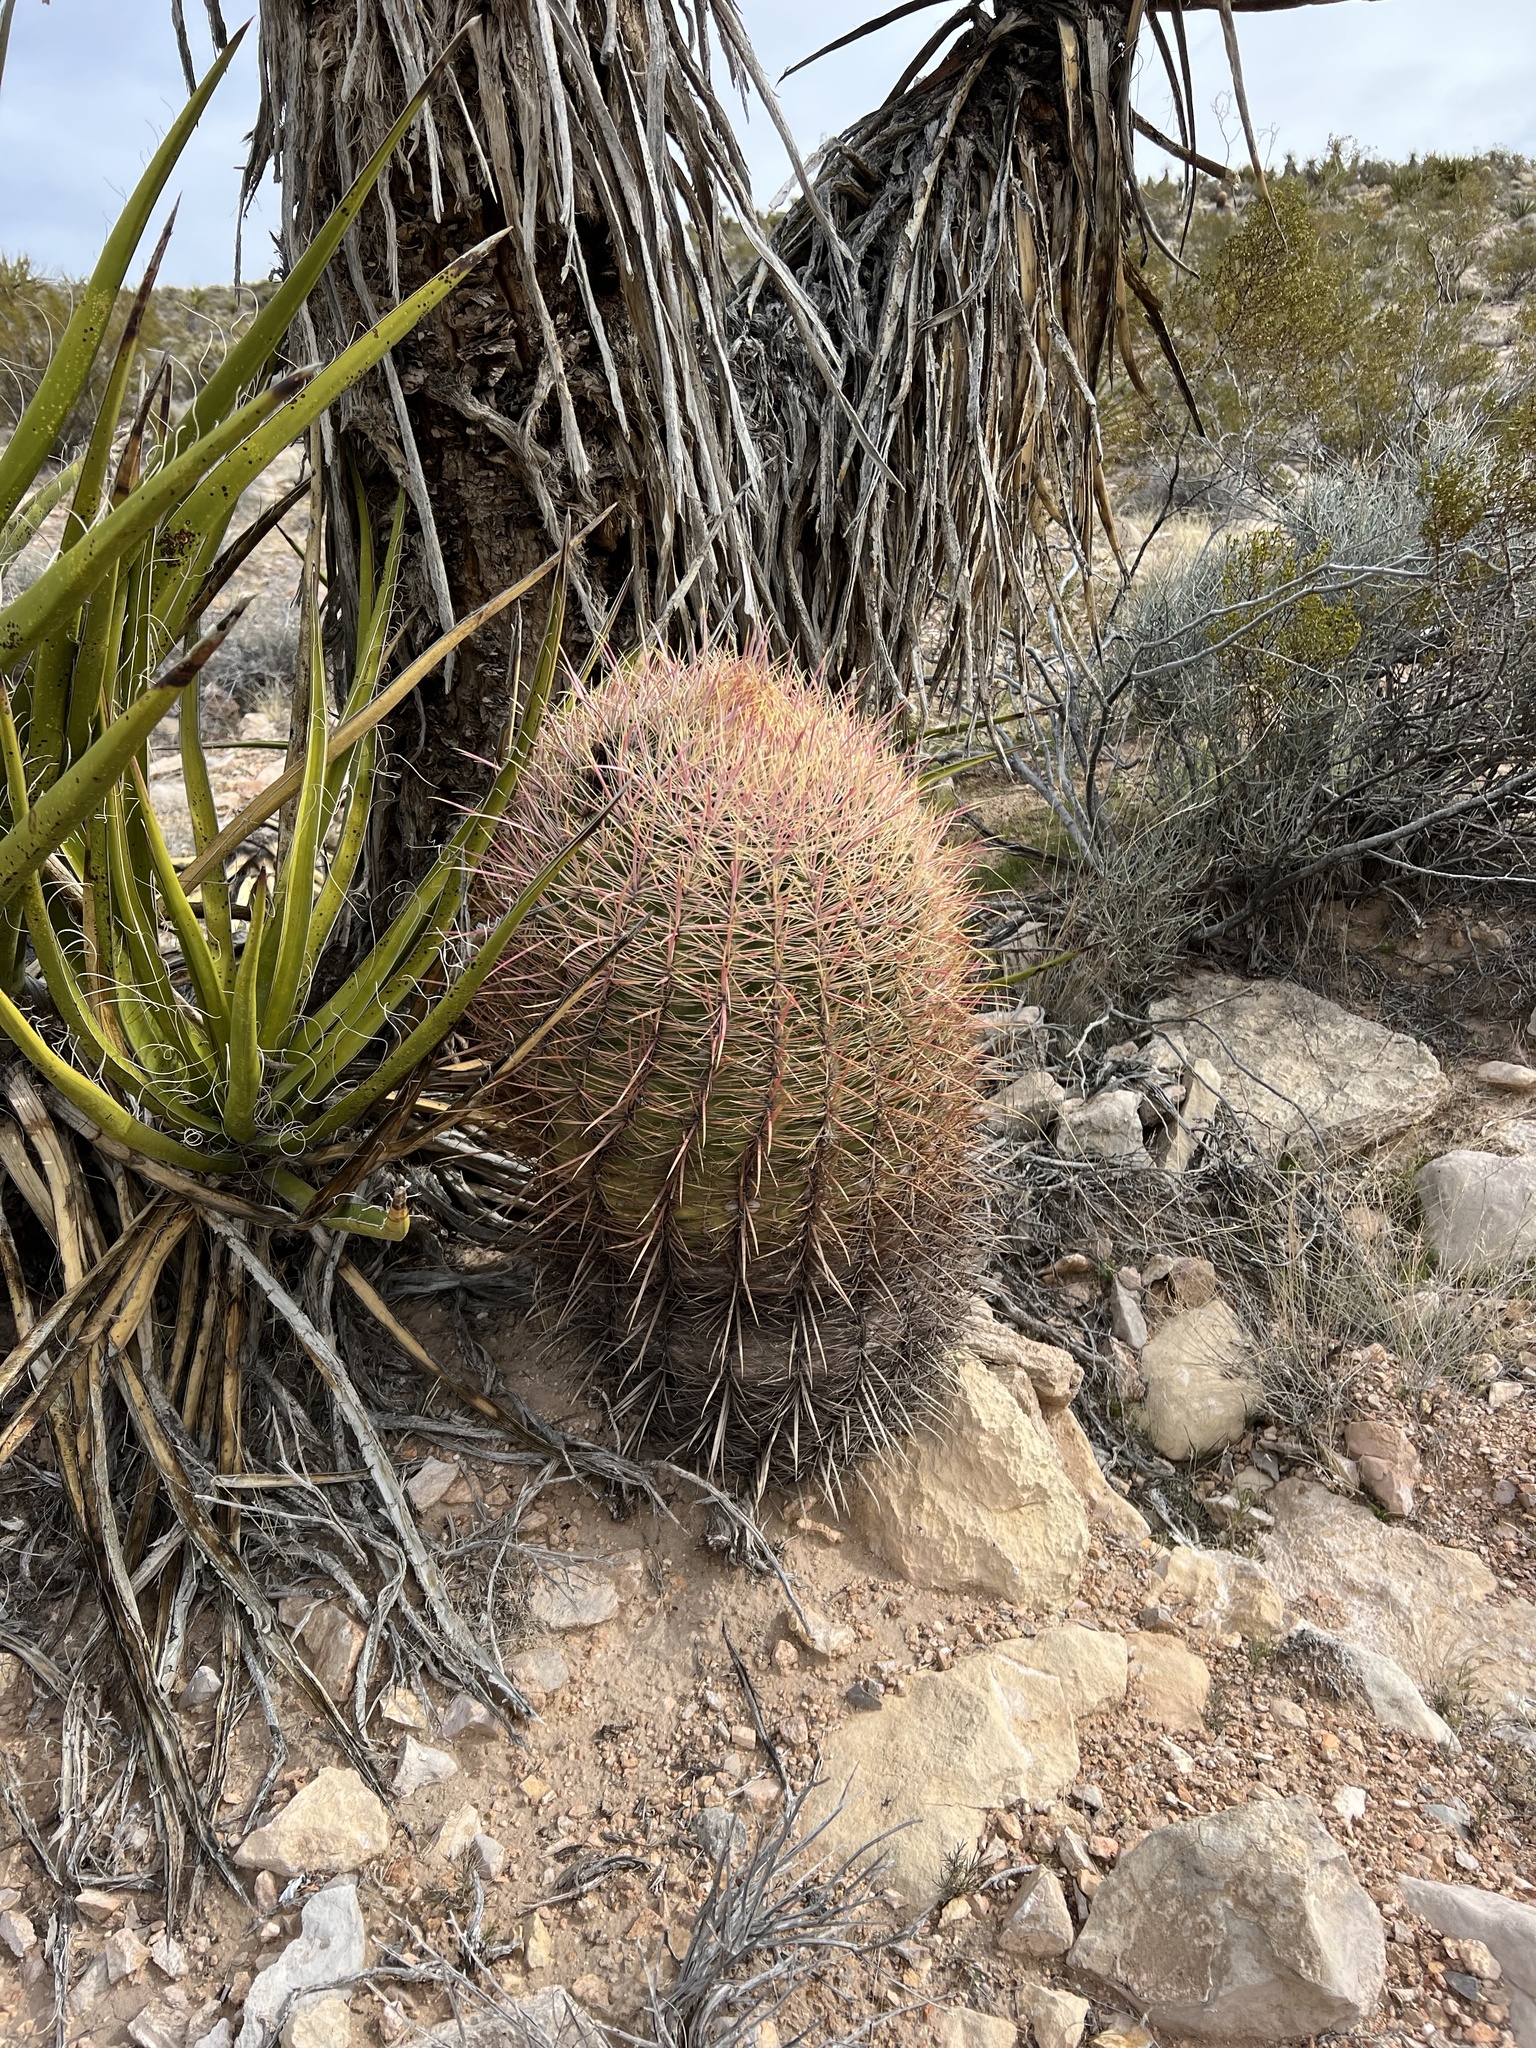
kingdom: Plantae
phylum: Tracheophyta
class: Magnoliopsida
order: Caryophyllales
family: Cactaceae
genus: Ferocactus
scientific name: Ferocactus cylindraceus
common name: California barrel cactus
